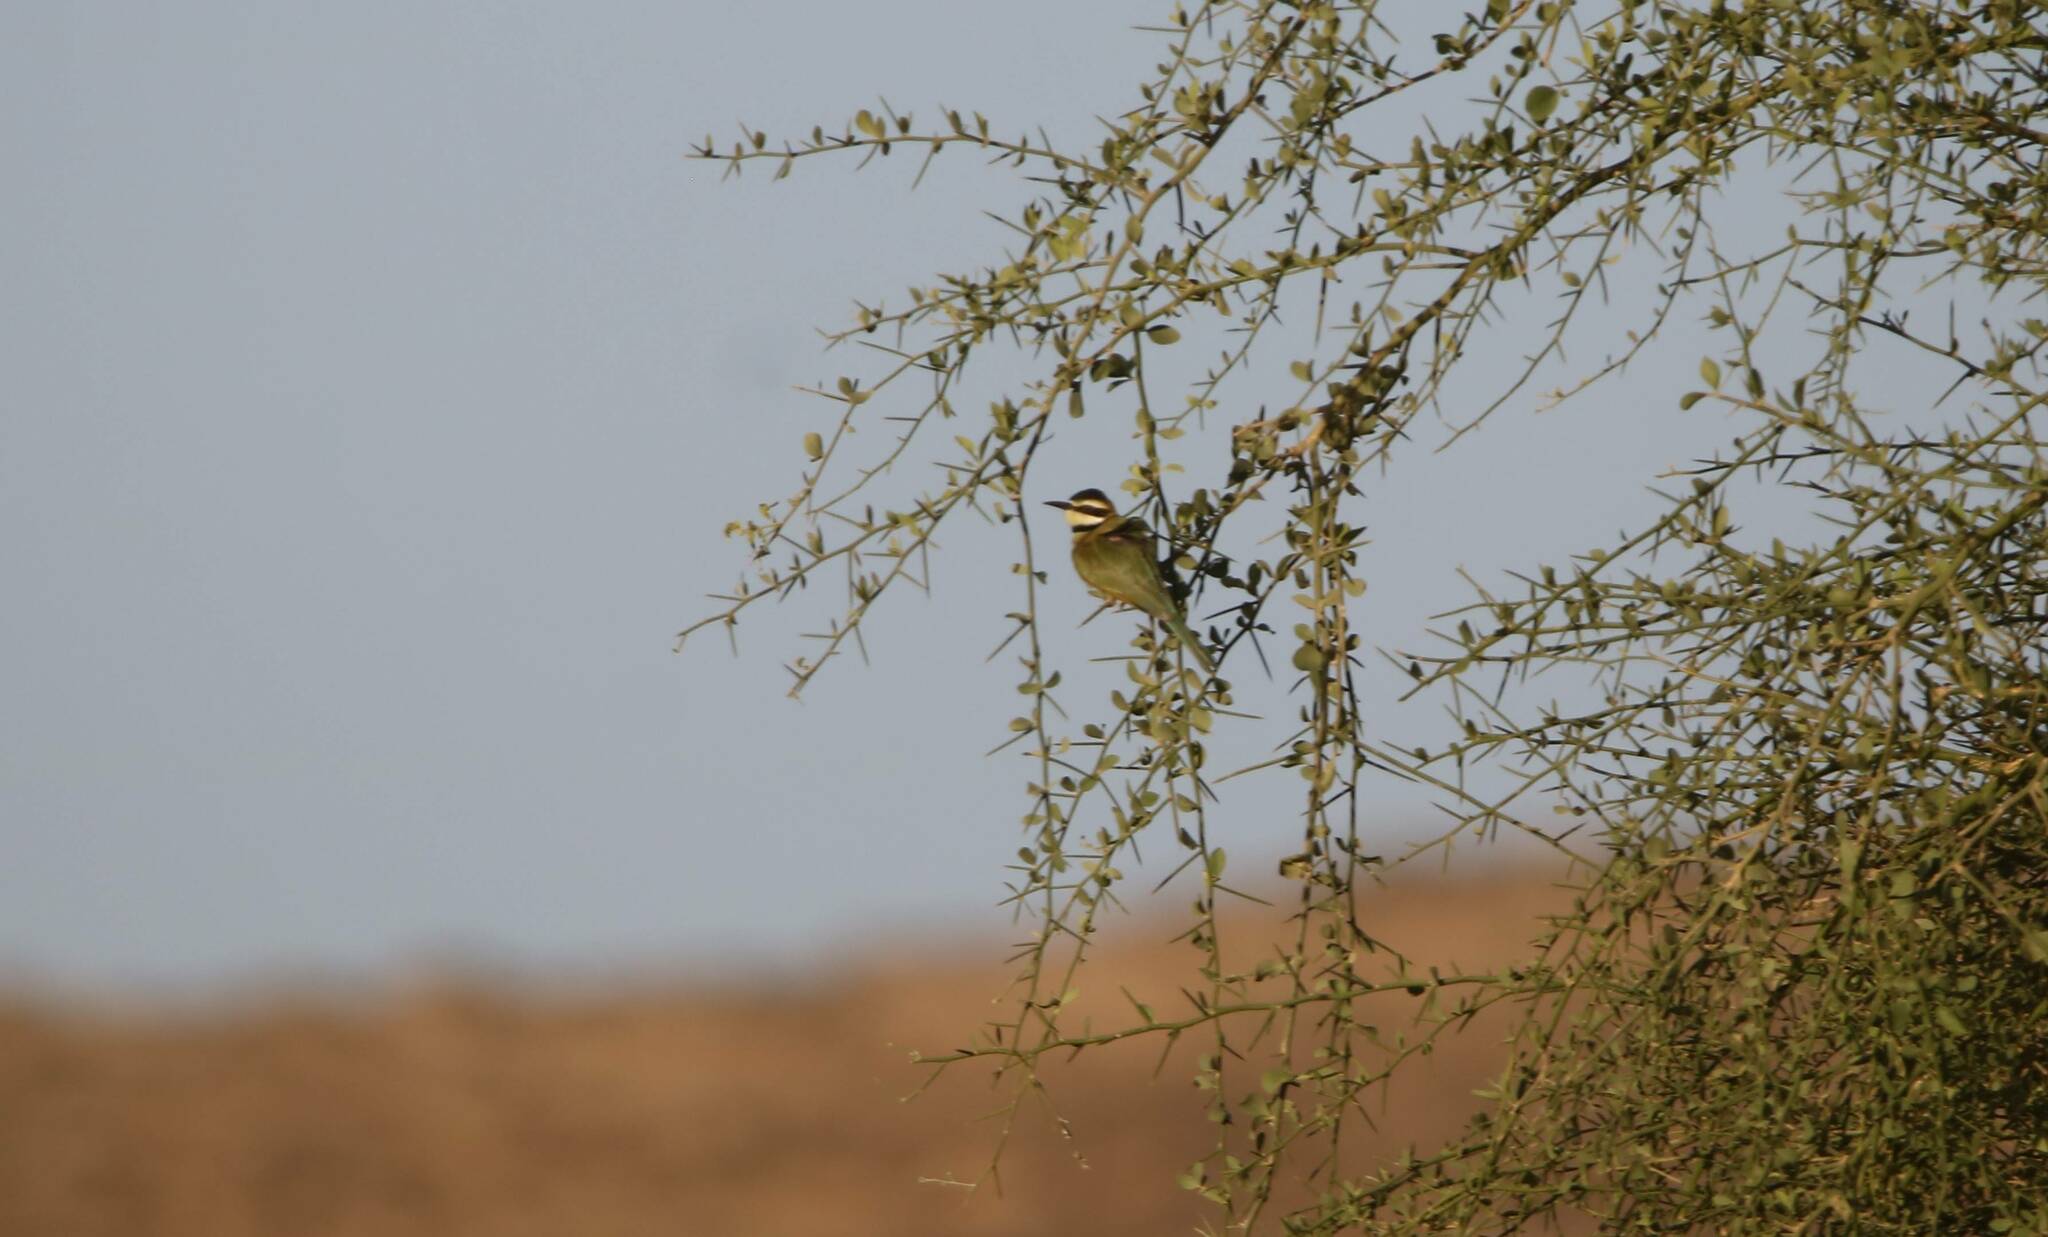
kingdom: Animalia
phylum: Chordata
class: Aves
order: Coraciiformes
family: Meropidae
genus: Merops
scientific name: Merops albicollis
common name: White-throated bee-eater
